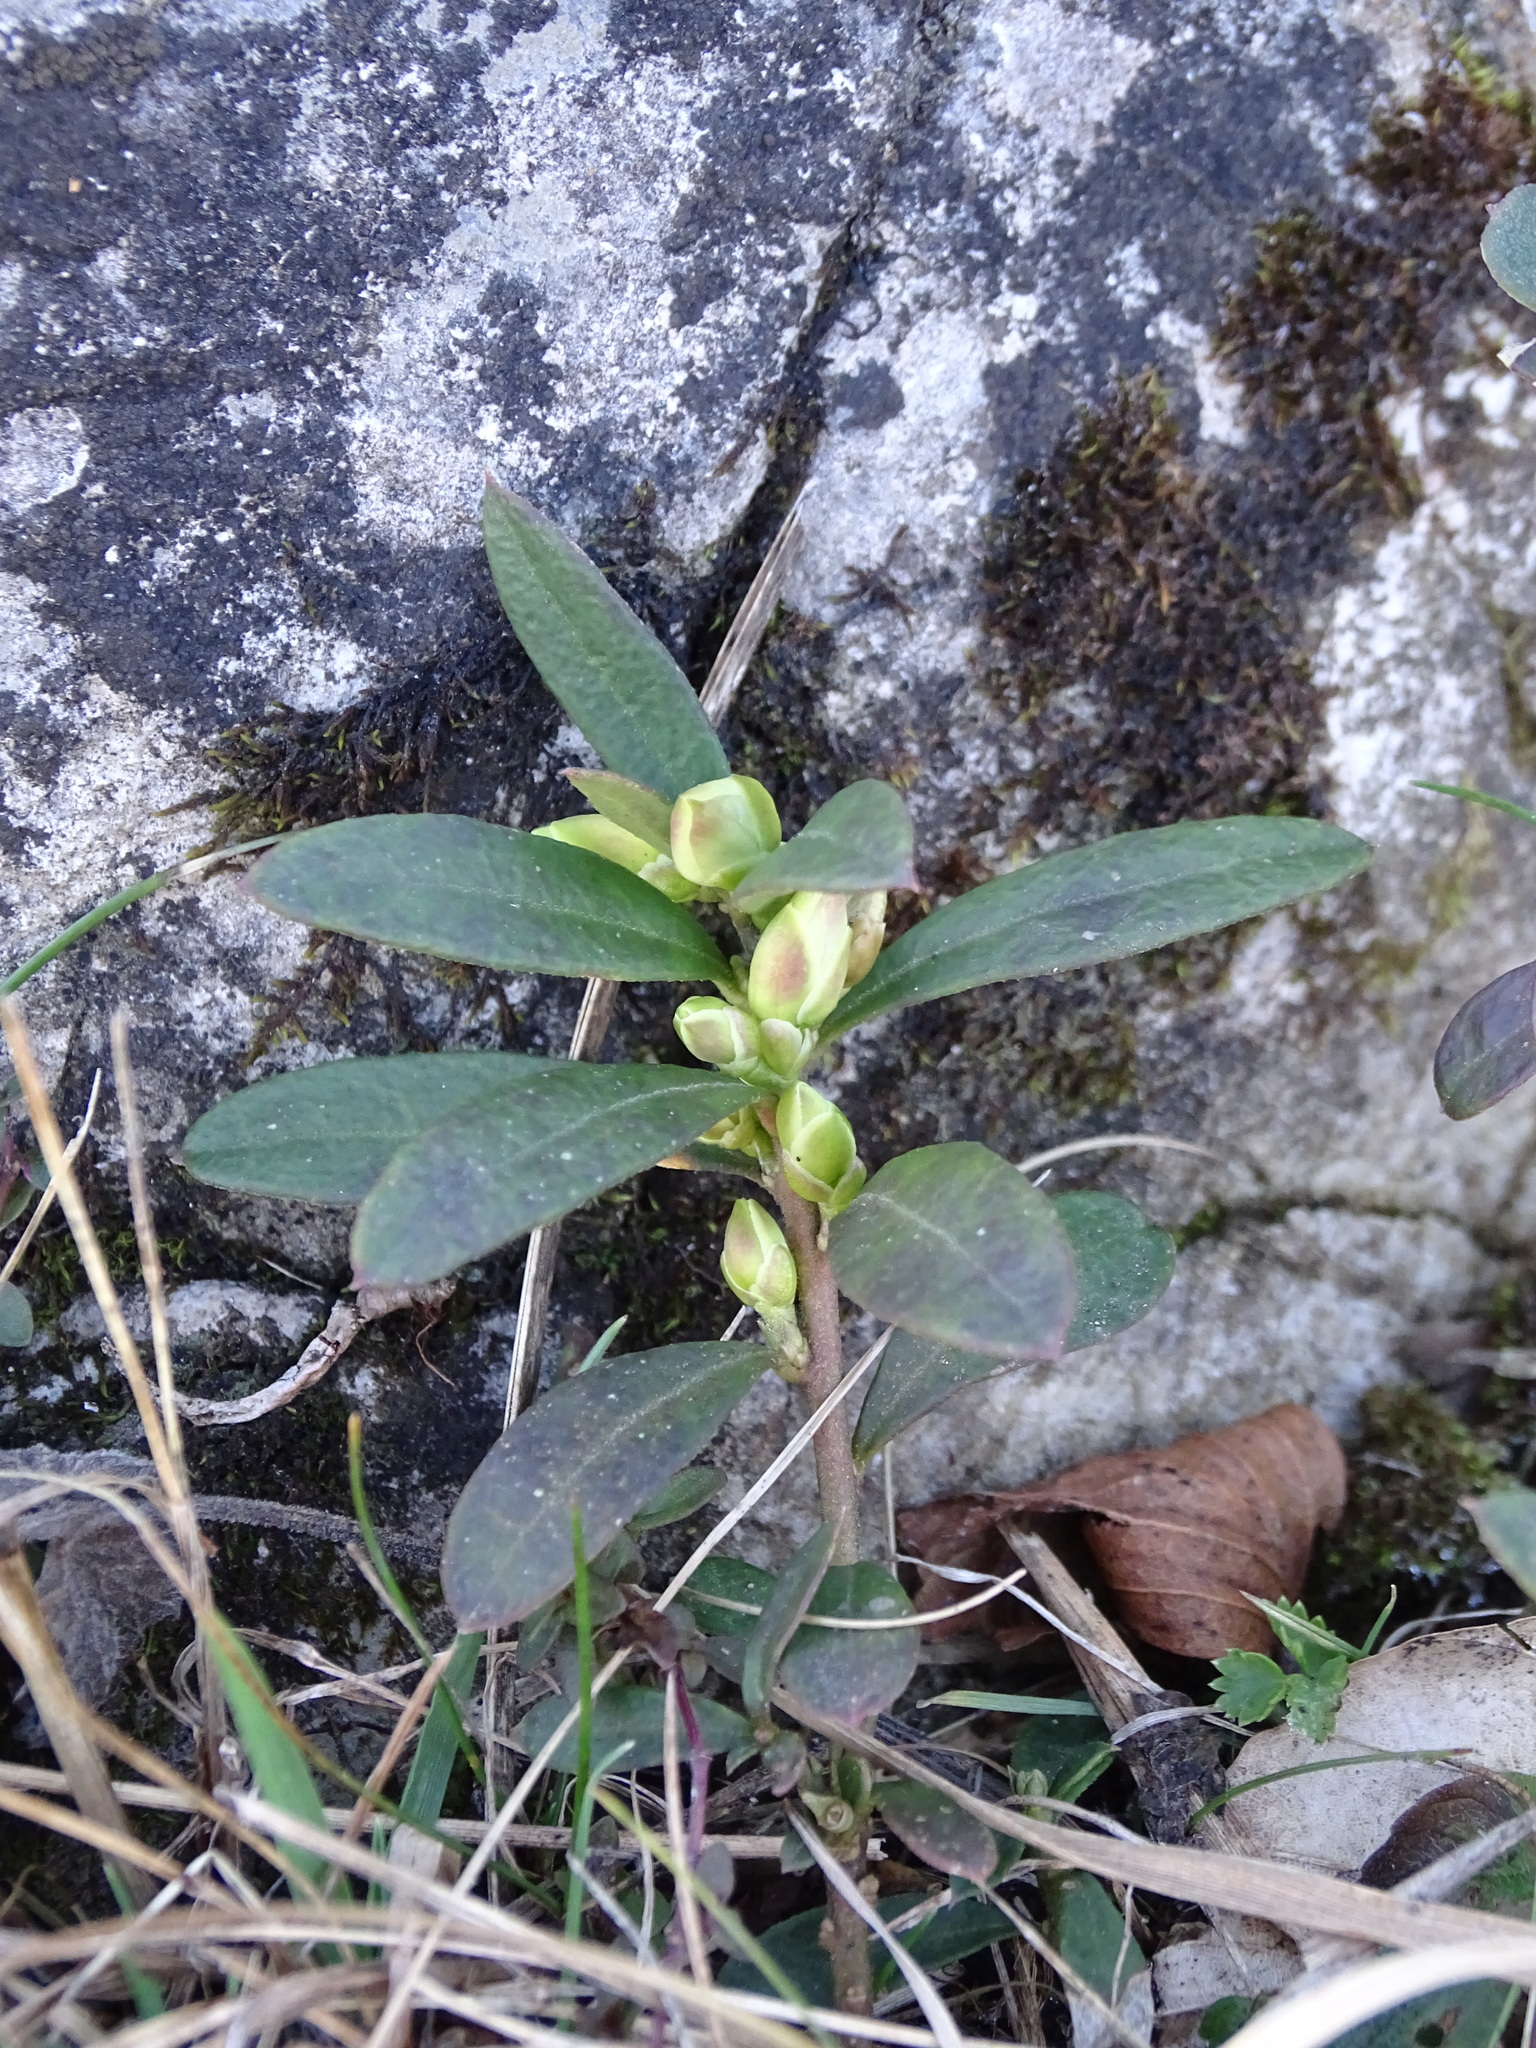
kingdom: Plantae
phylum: Tracheophyta
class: Magnoliopsida
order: Fabales
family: Polygalaceae
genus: Polygaloides
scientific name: Polygaloides chamaebuxus
